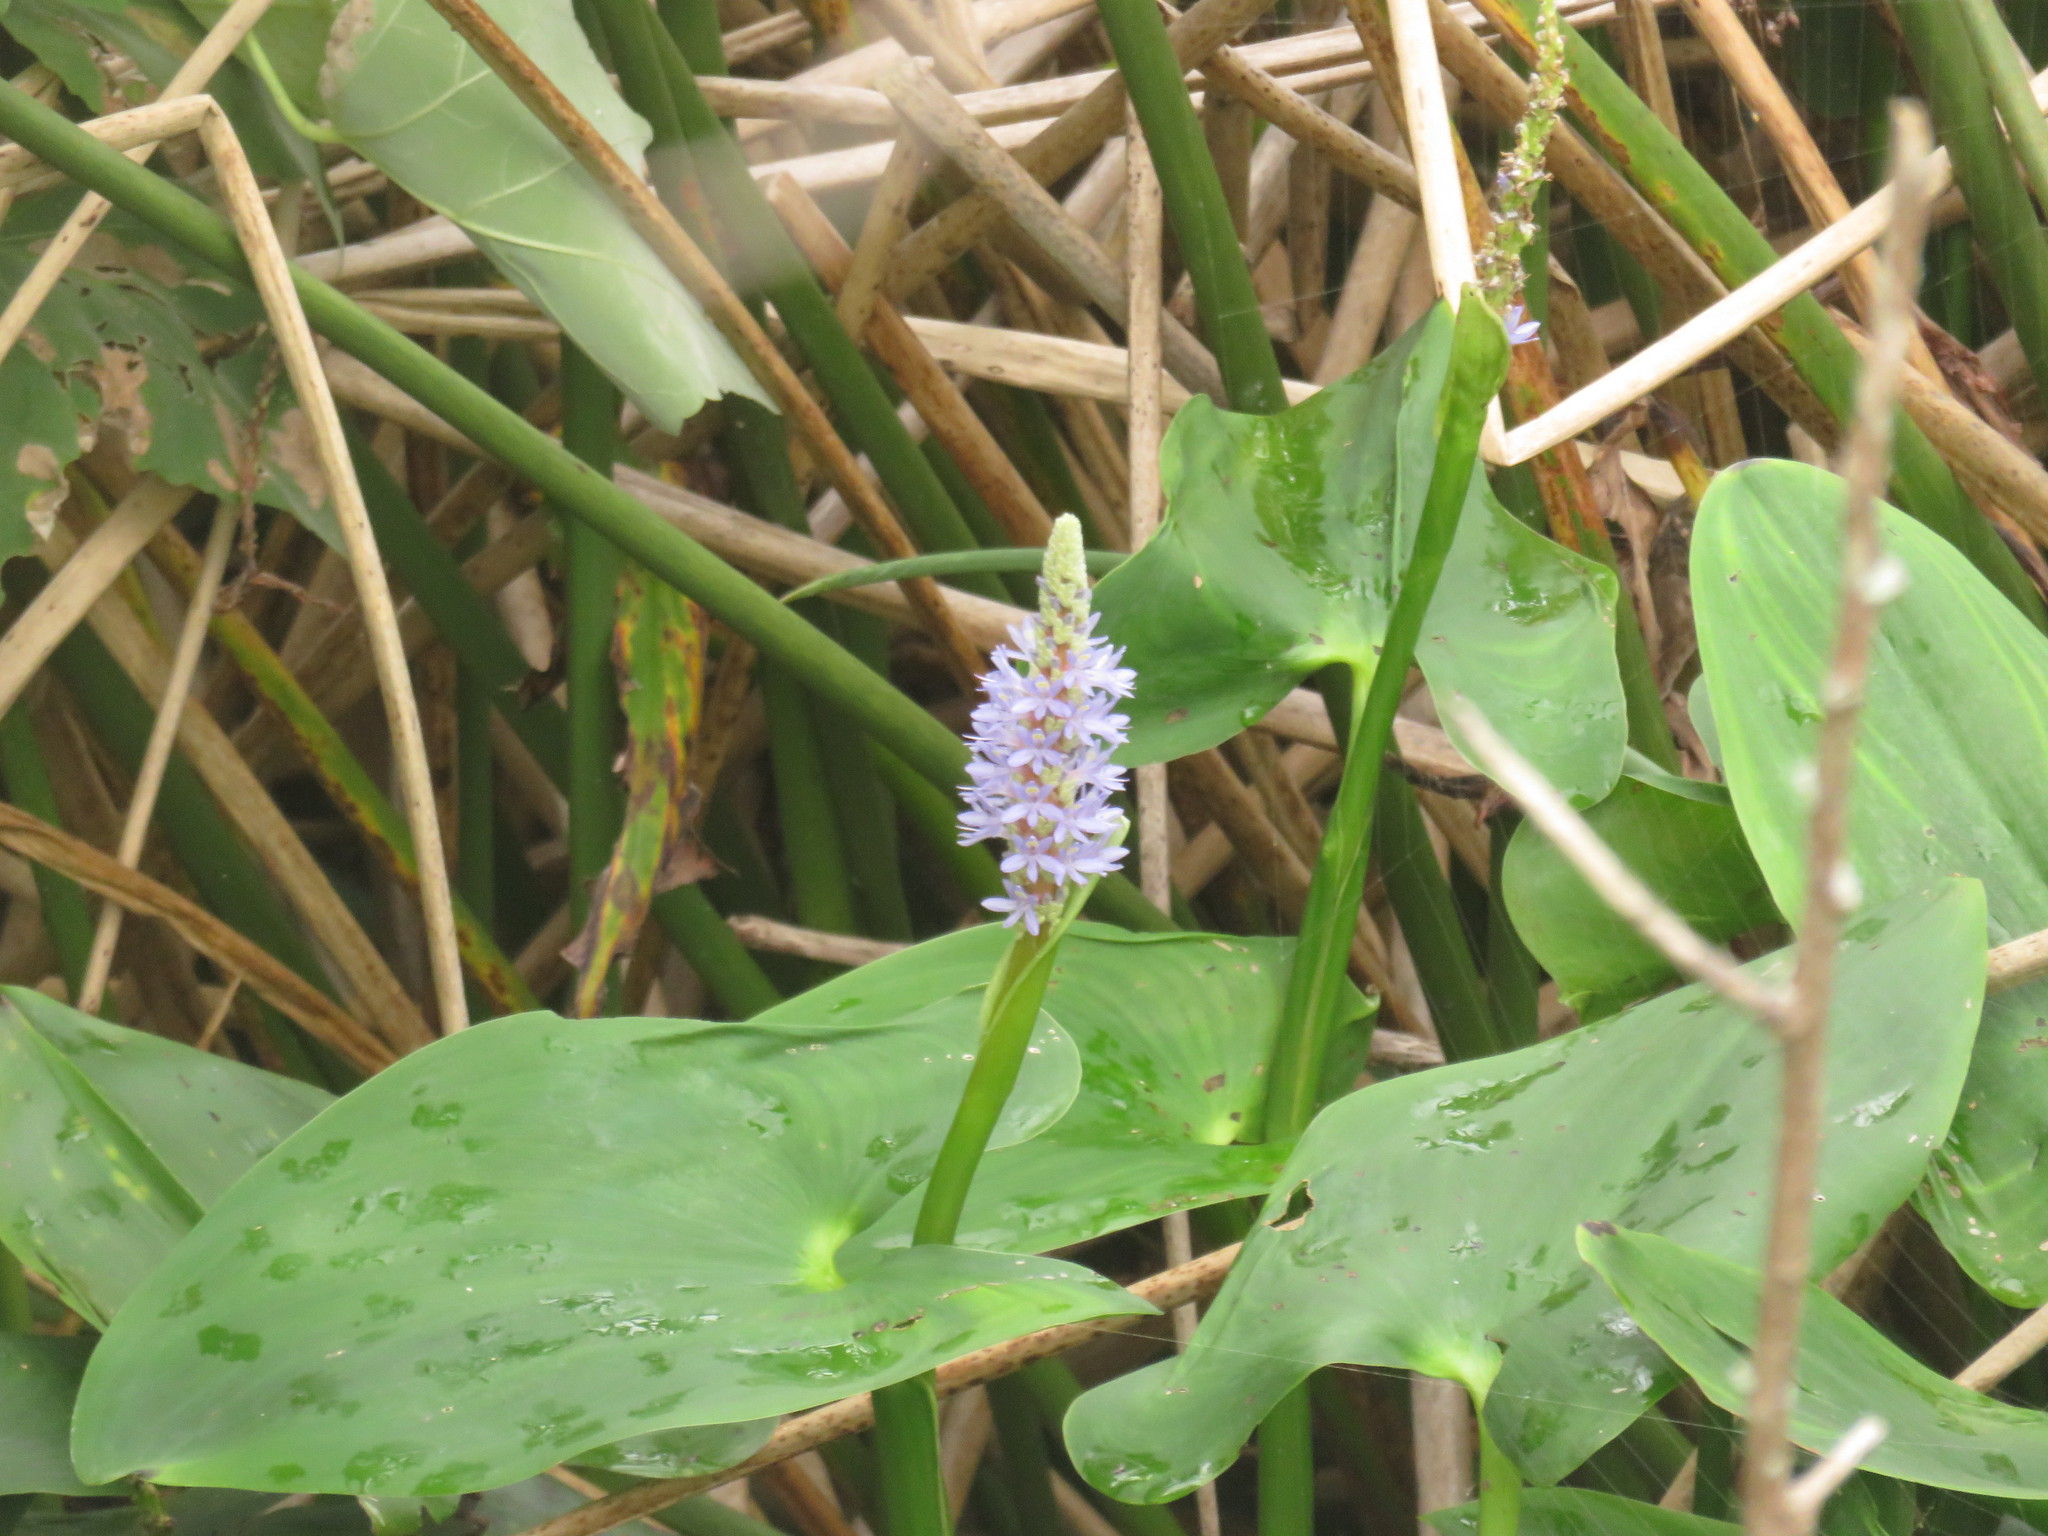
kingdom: Plantae
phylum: Tracheophyta
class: Liliopsida
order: Commelinales
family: Pontederiaceae
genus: Pontederia
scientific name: Pontederia cordata
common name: Pickerelweed
